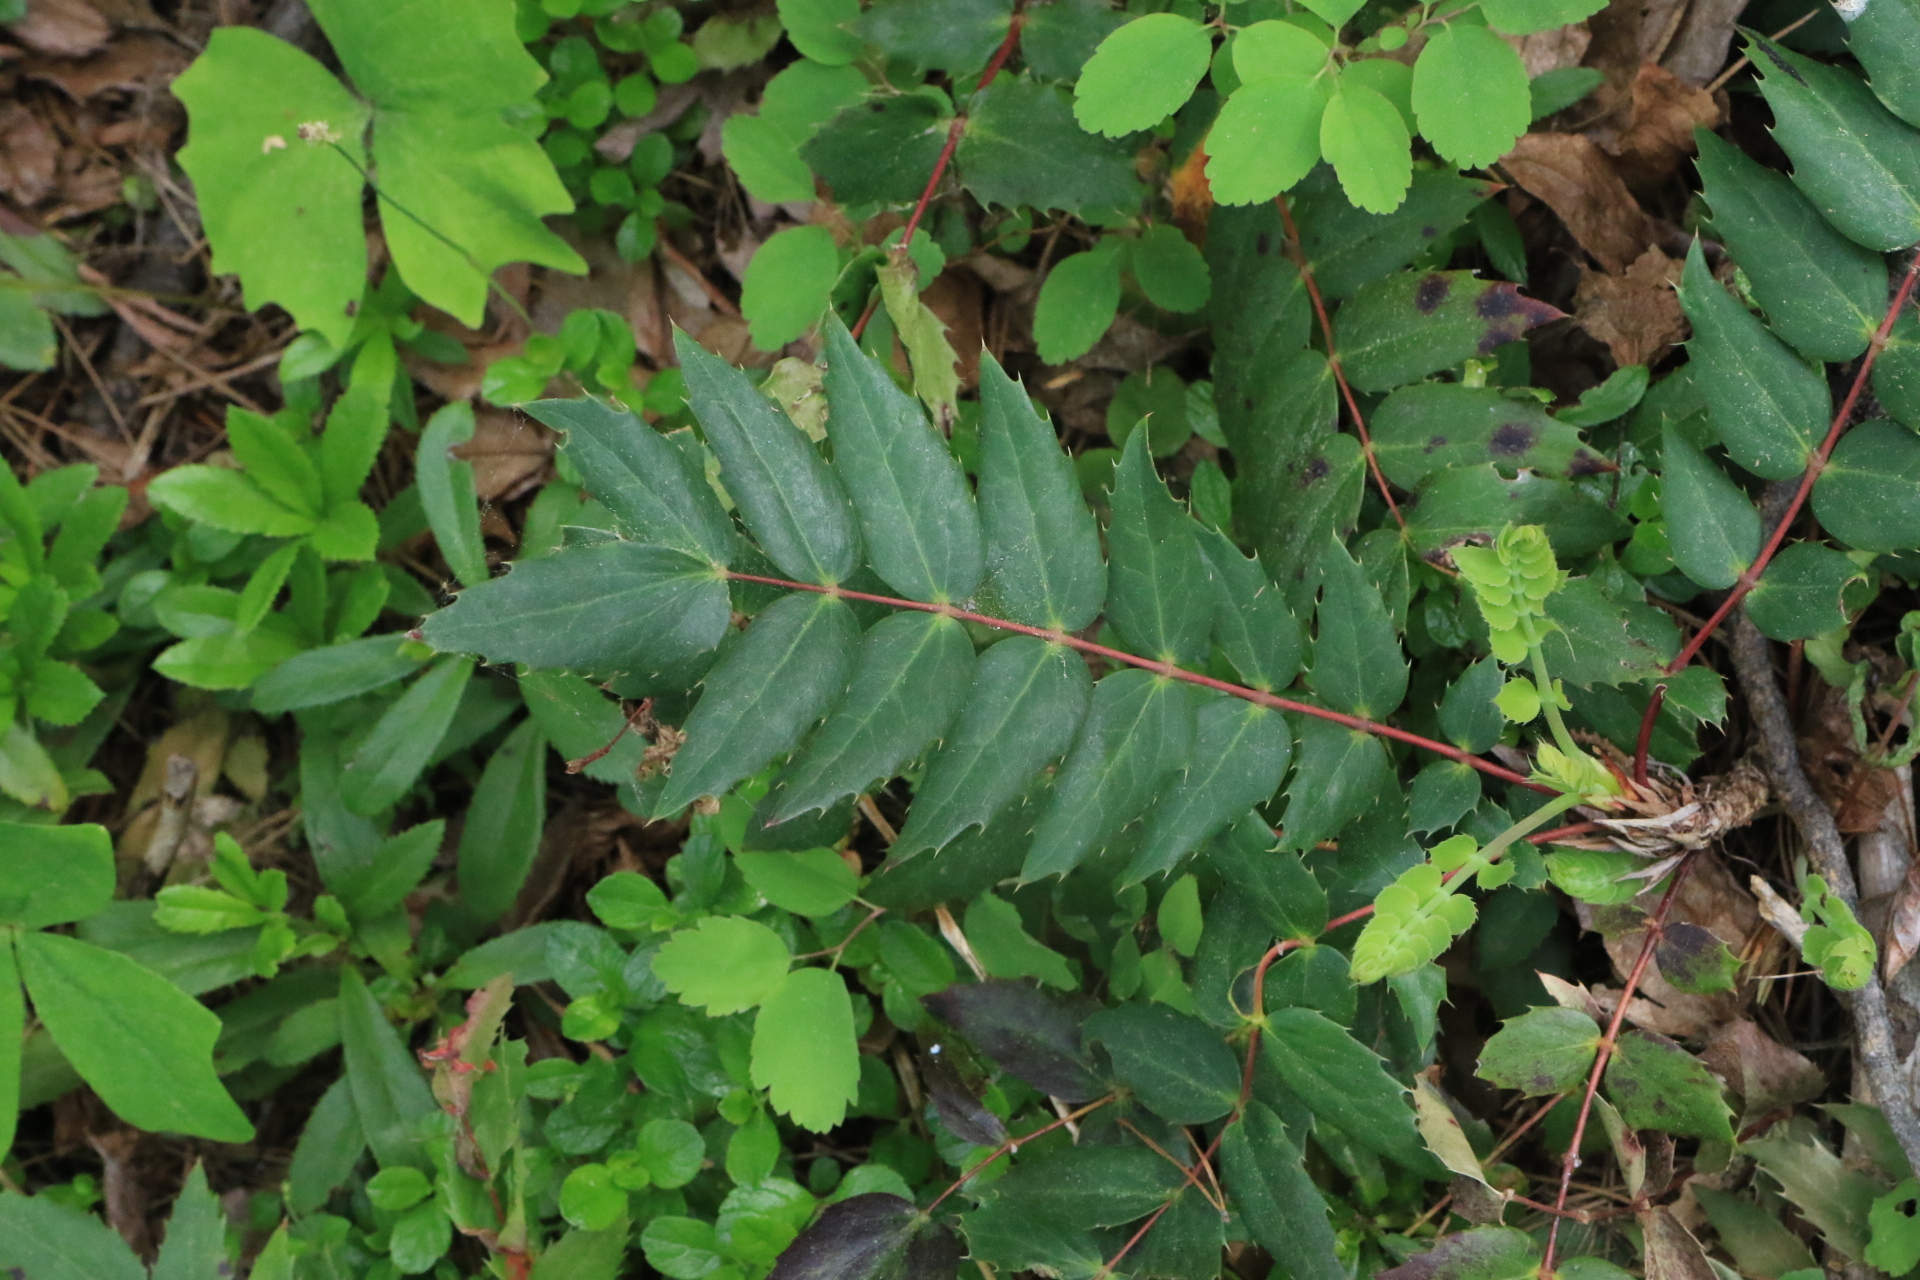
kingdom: Plantae
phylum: Tracheophyta
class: Magnoliopsida
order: Ranunculales
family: Berberidaceae
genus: Mahonia
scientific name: Mahonia nervosa
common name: Cascade oregon-grape
